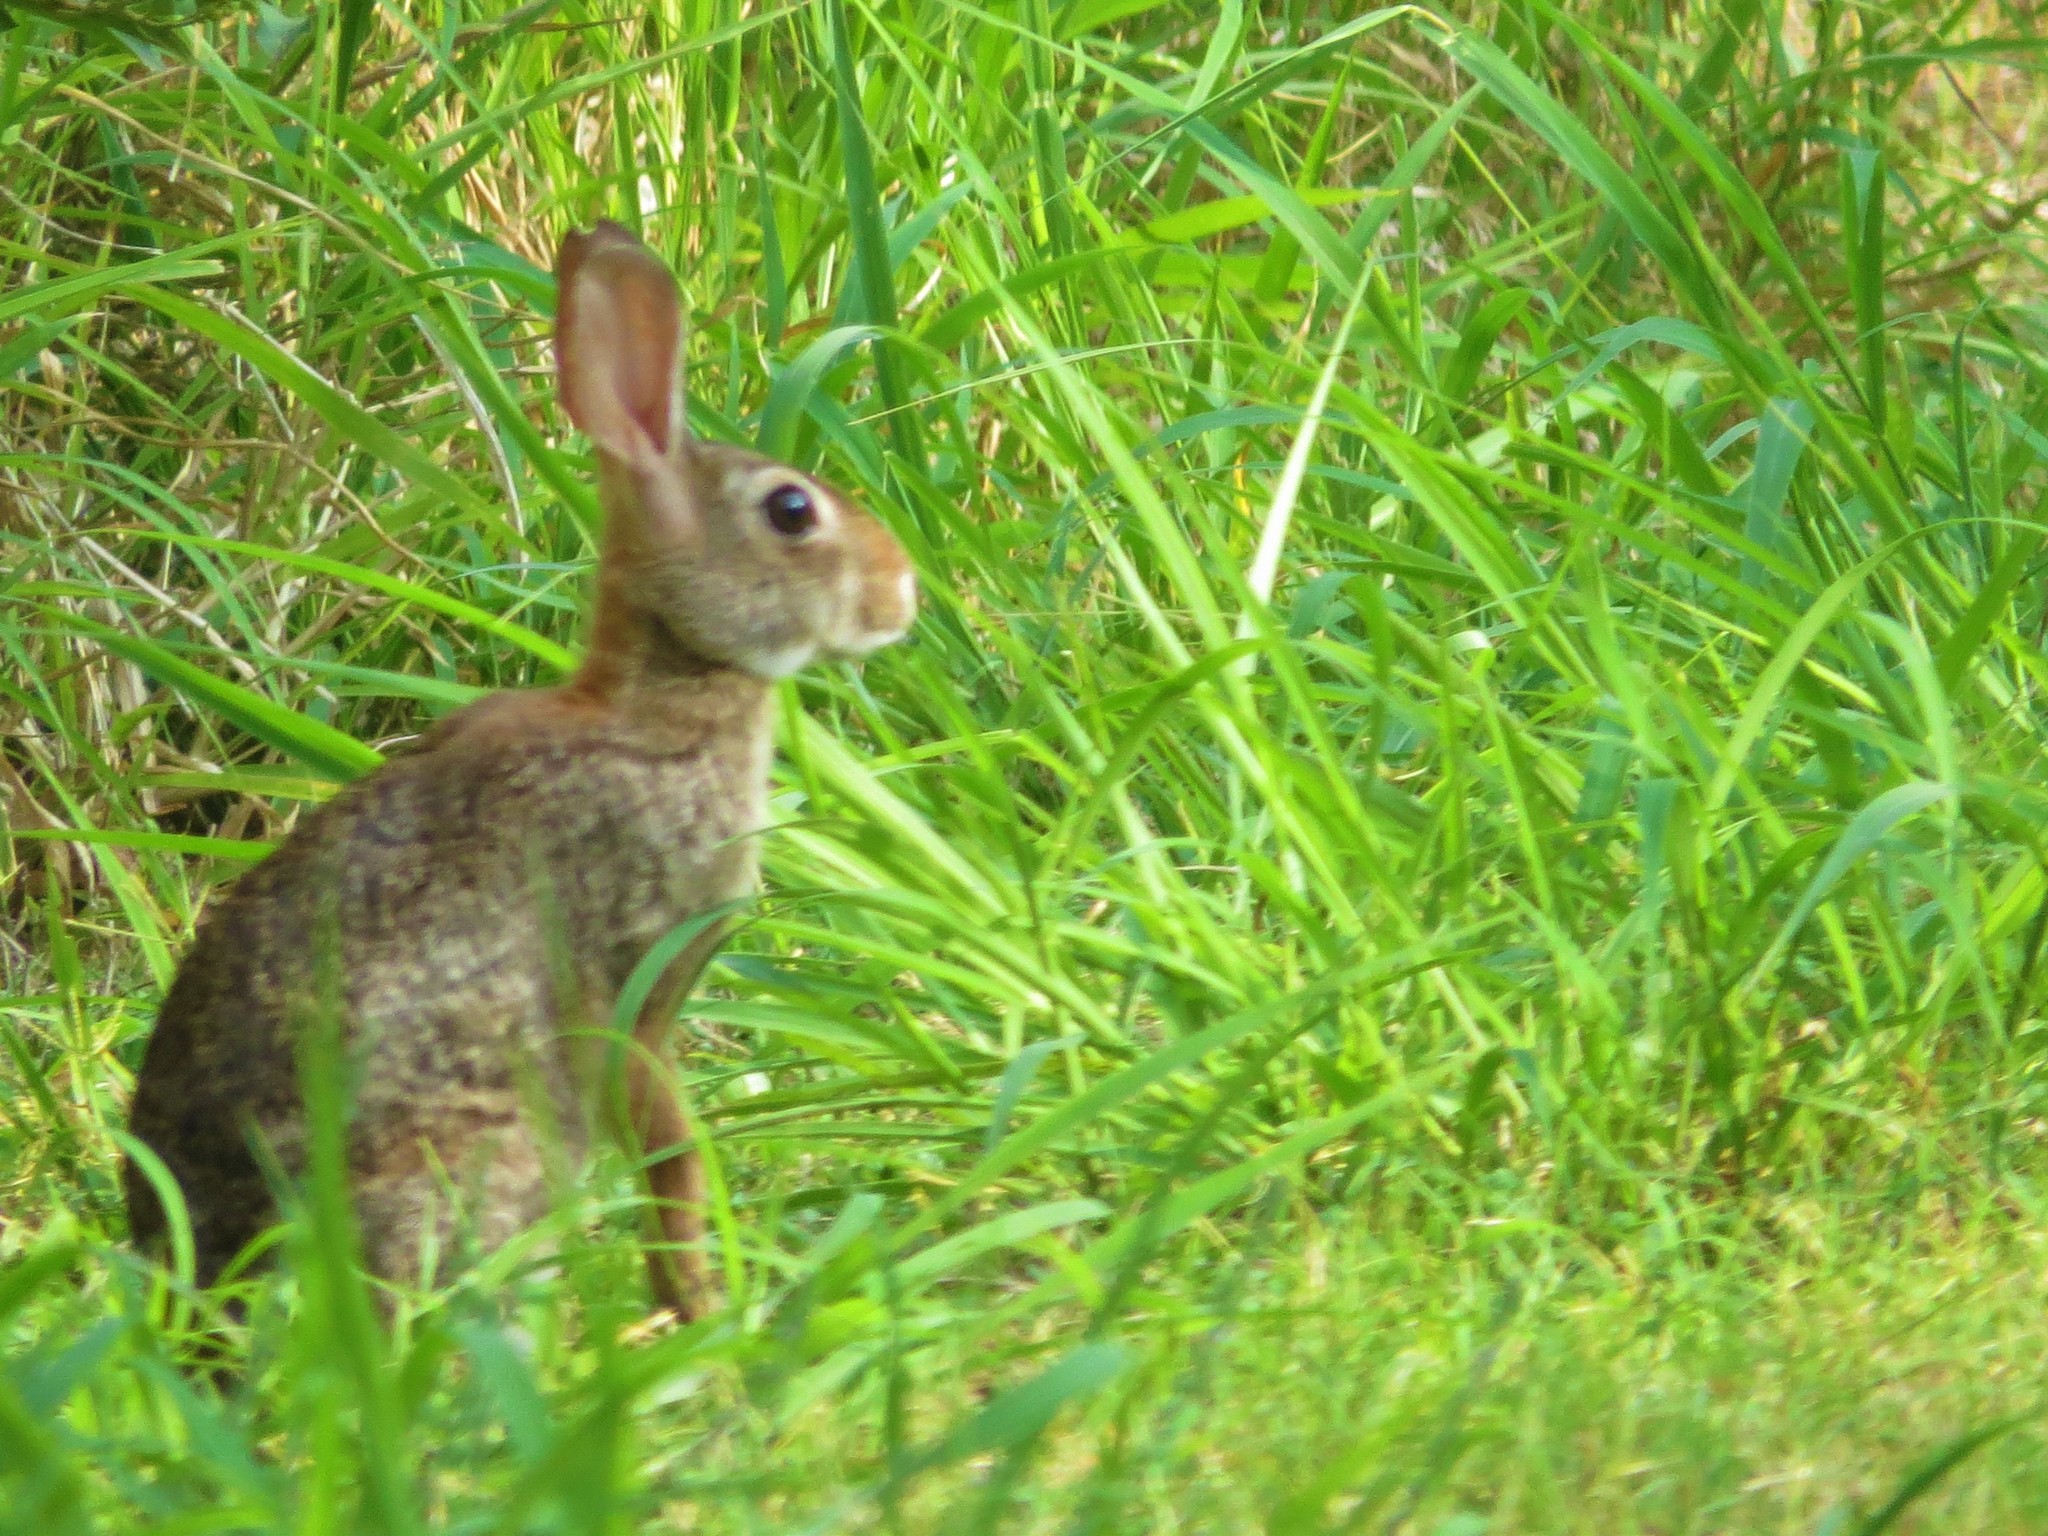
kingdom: Animalia
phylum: Chordata
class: Mammalia
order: Lagomorpha
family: Leporidae
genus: Sylvilagus
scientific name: Sylvilagus floridanus
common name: Eastern cottontail
